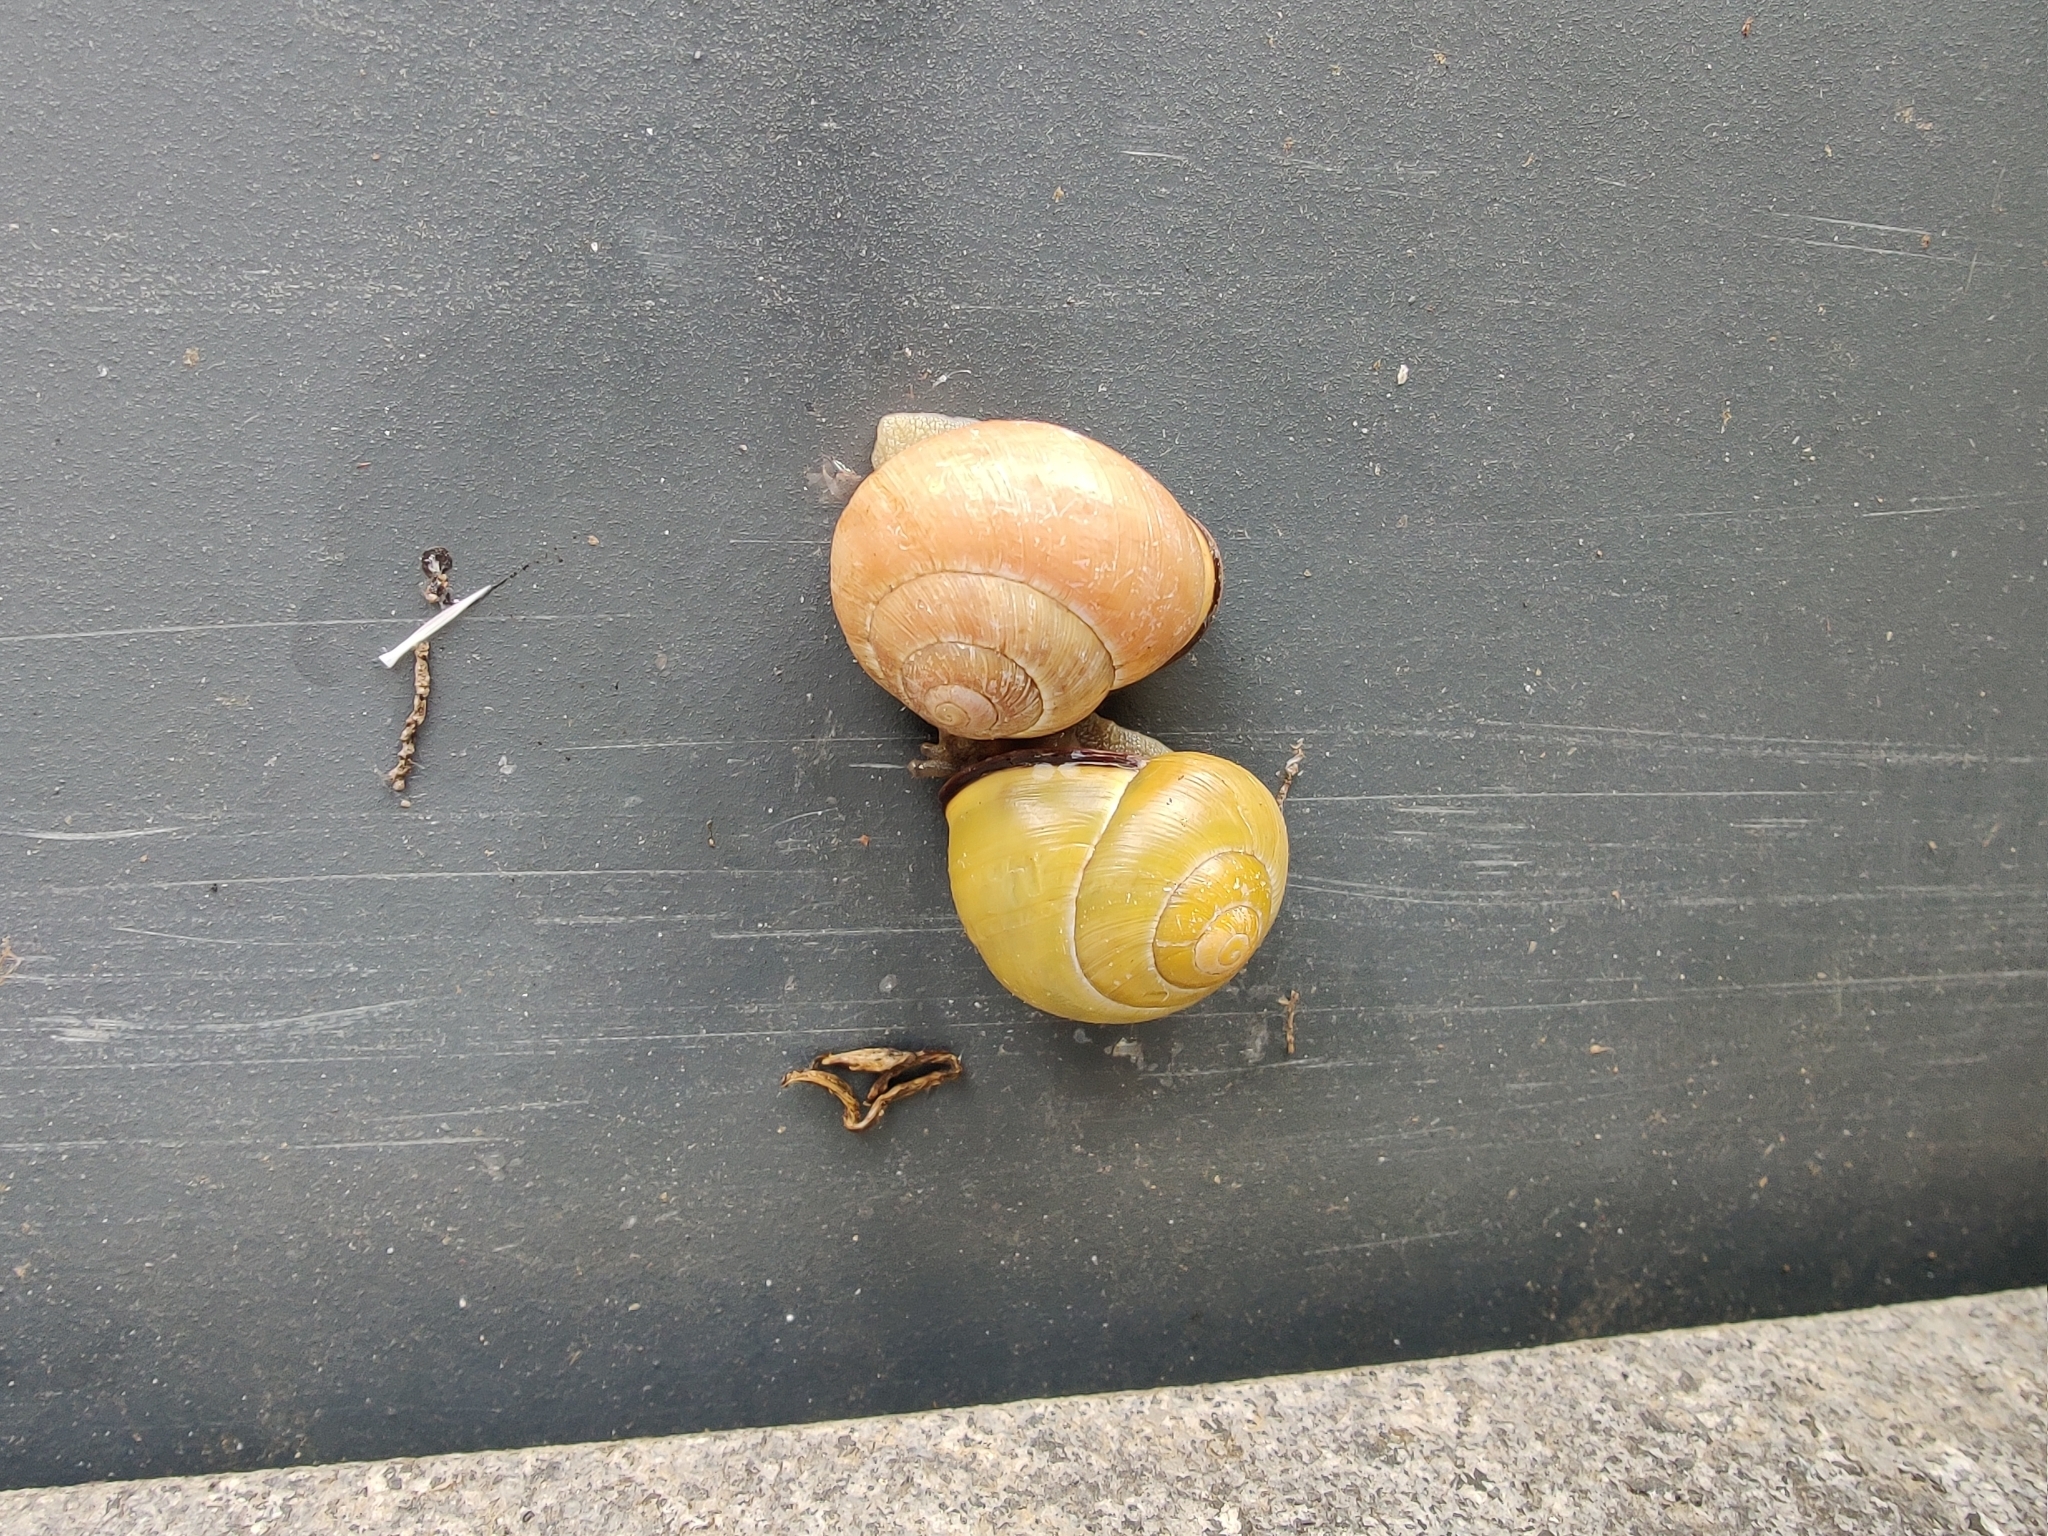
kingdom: Animalia
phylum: Mollusca
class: Gastropoda
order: Stylommatophora
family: Helicidae
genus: Cepaea
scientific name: Cepaea nemoralis
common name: Grovesnail
